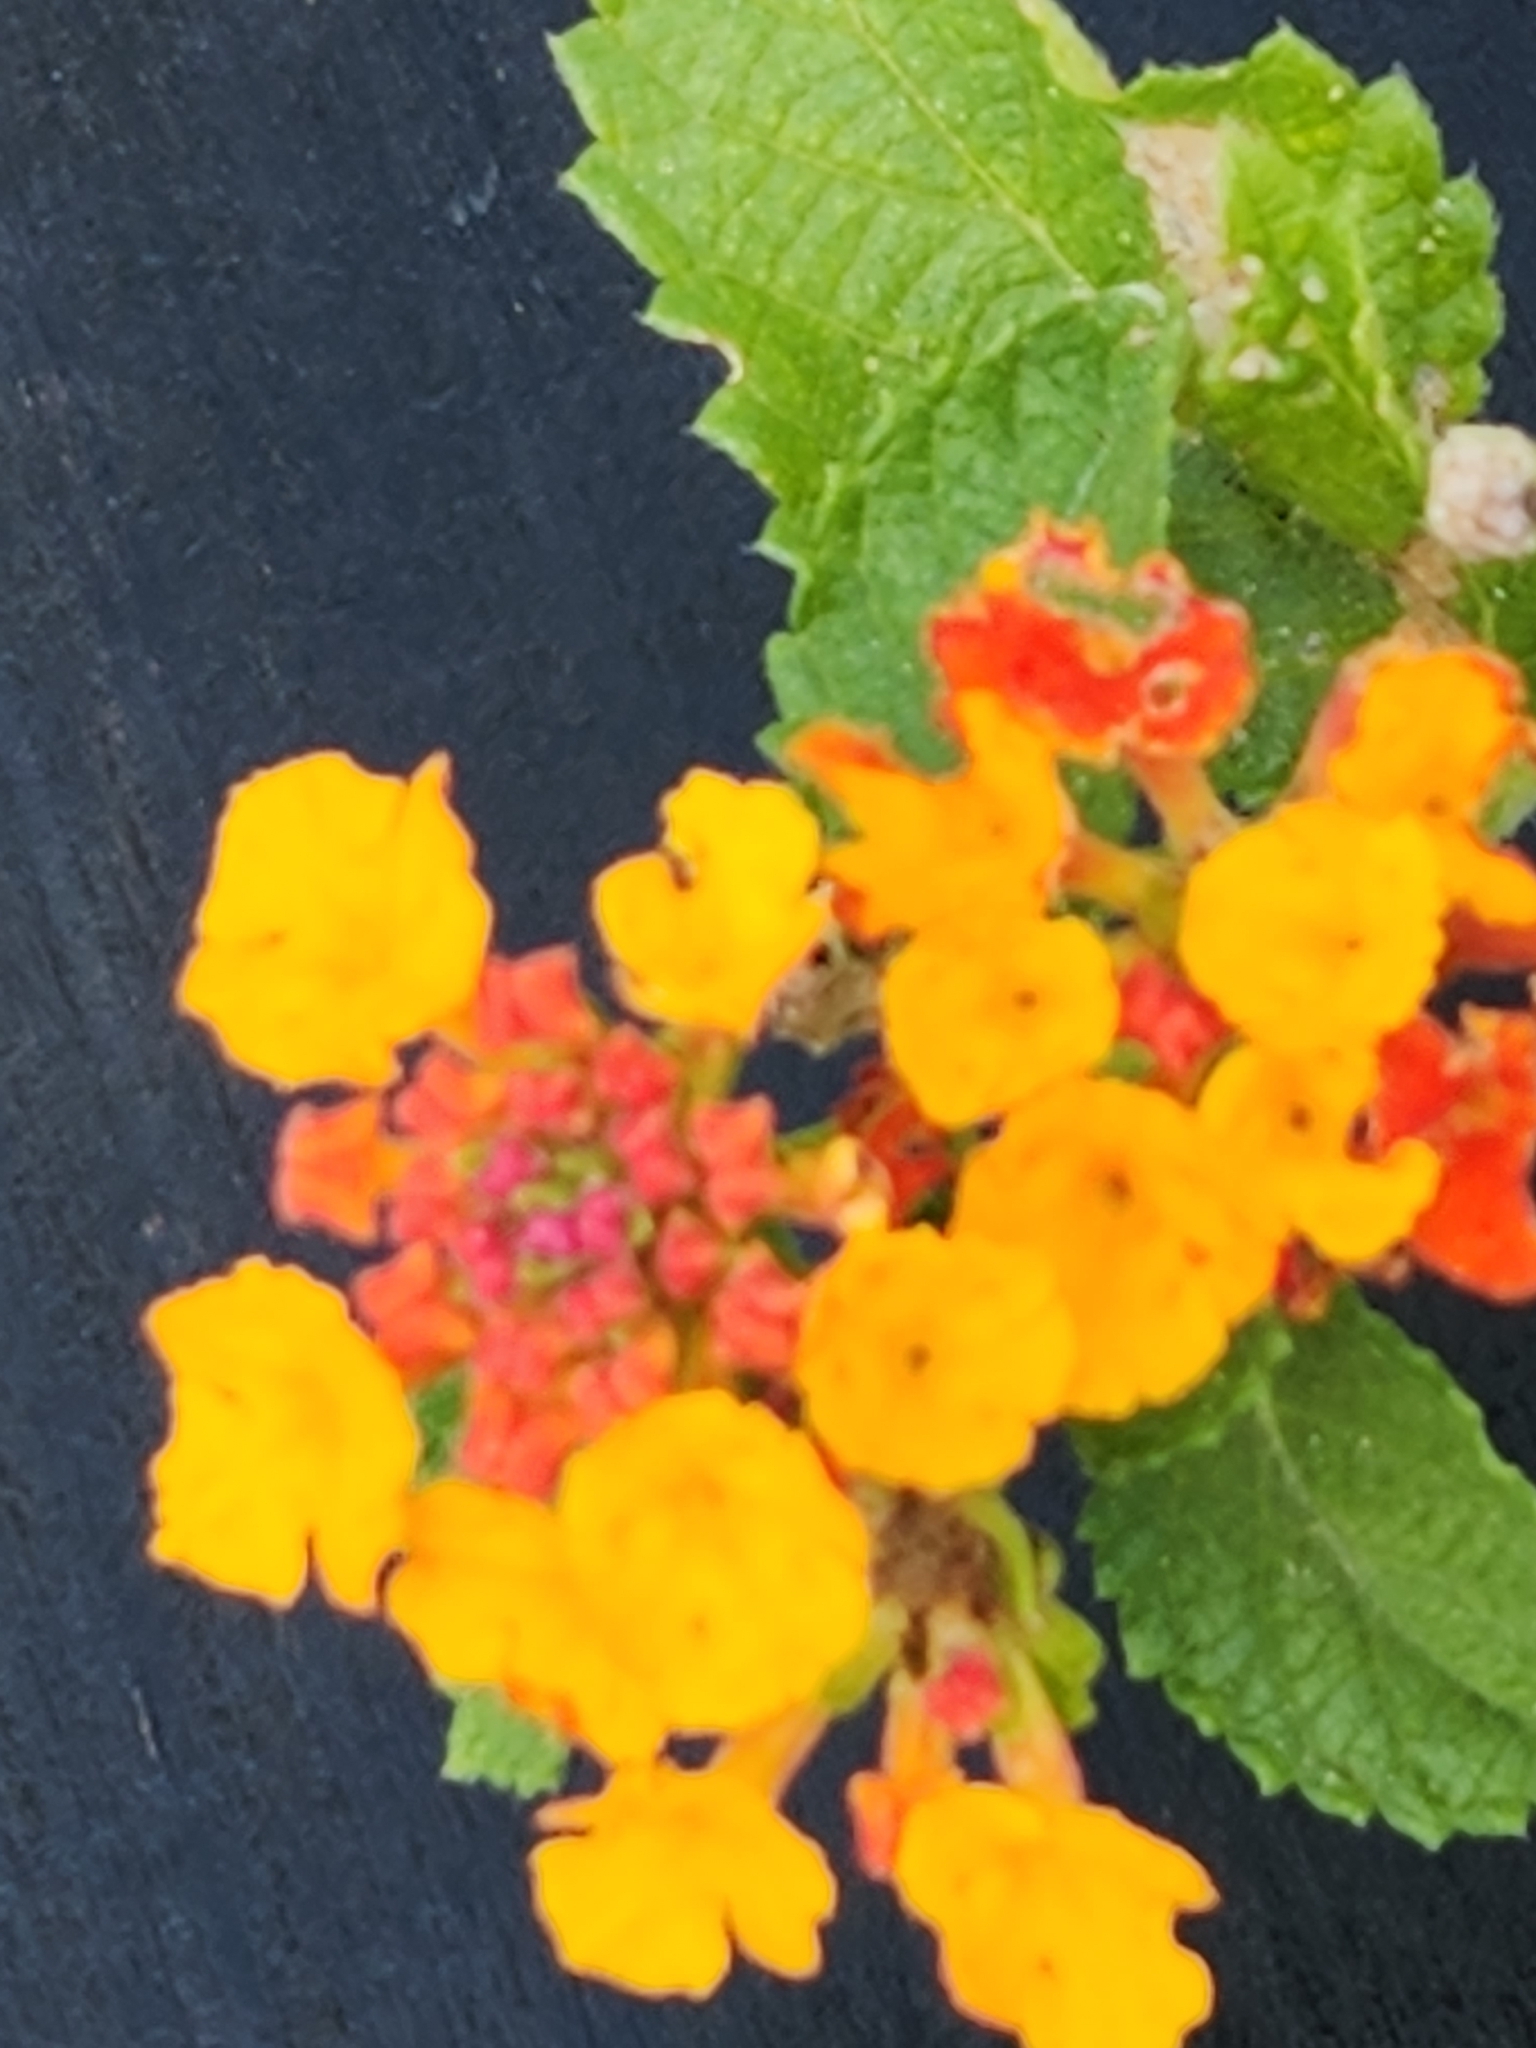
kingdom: Plantae
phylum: Tracheophyta
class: Magnoliopsida
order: Lamiales
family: Verbenaceae
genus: Lantana
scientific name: Lantana urticoides
